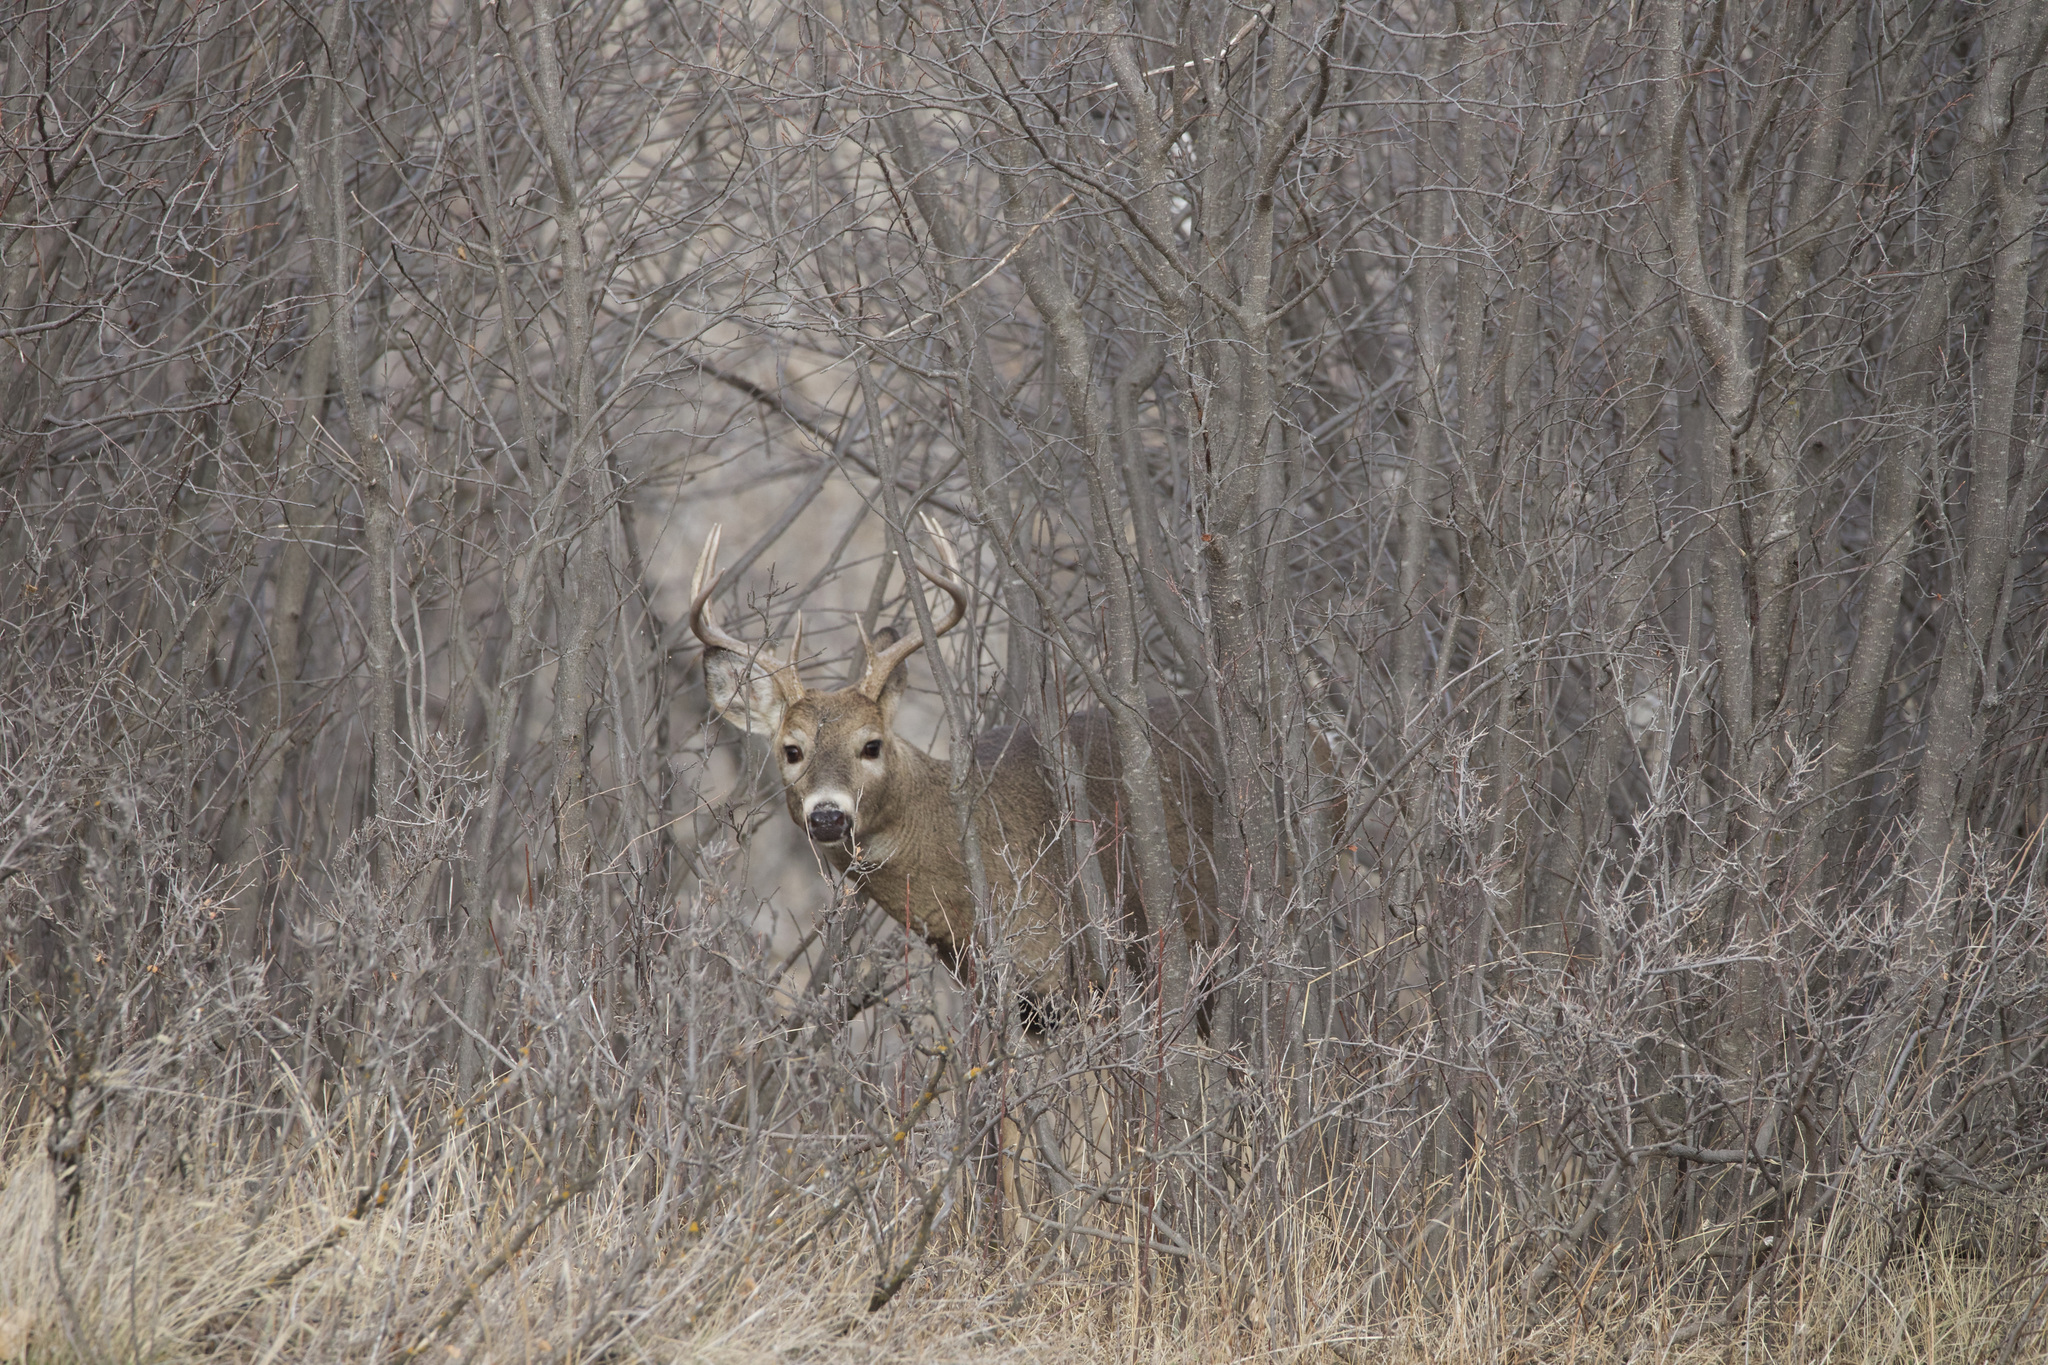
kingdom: Animalia
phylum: Chordata
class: Mammalia
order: Artiodactyla
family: Cervidae
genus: Odocoileus
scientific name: Odocoileus virginianus
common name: White-tailed deer
